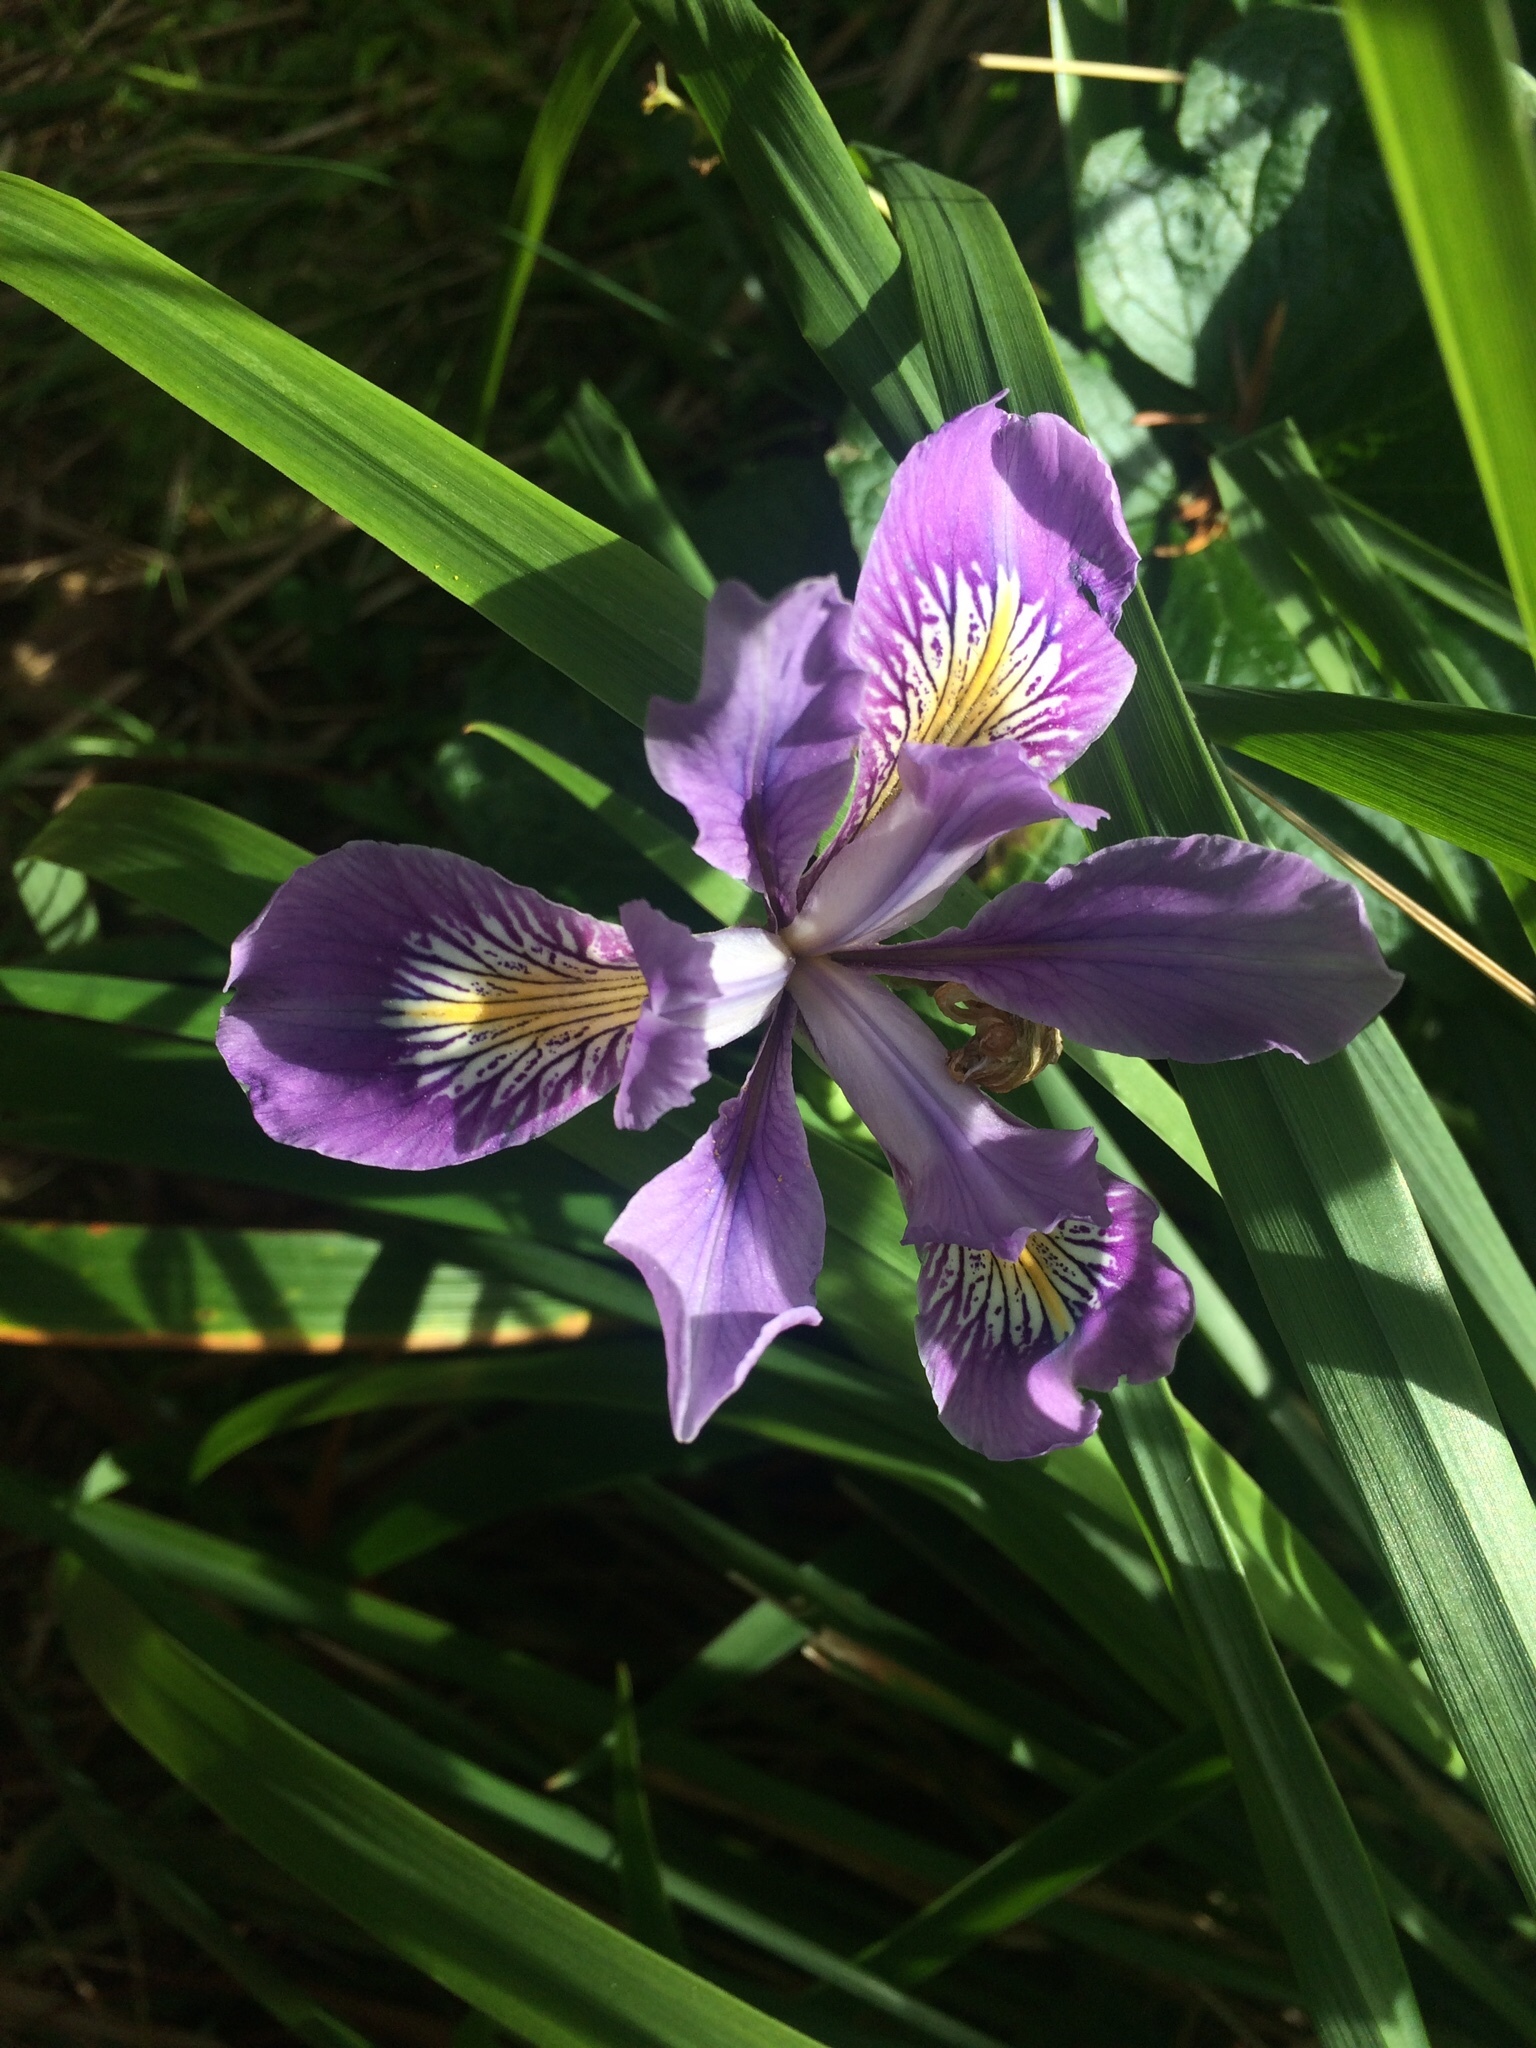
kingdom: Plantae
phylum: Tracheophyta
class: Liliopsida
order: Asparagales
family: Iridaceae
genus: Iris
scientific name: Iris douglasiana
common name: Marin iris
